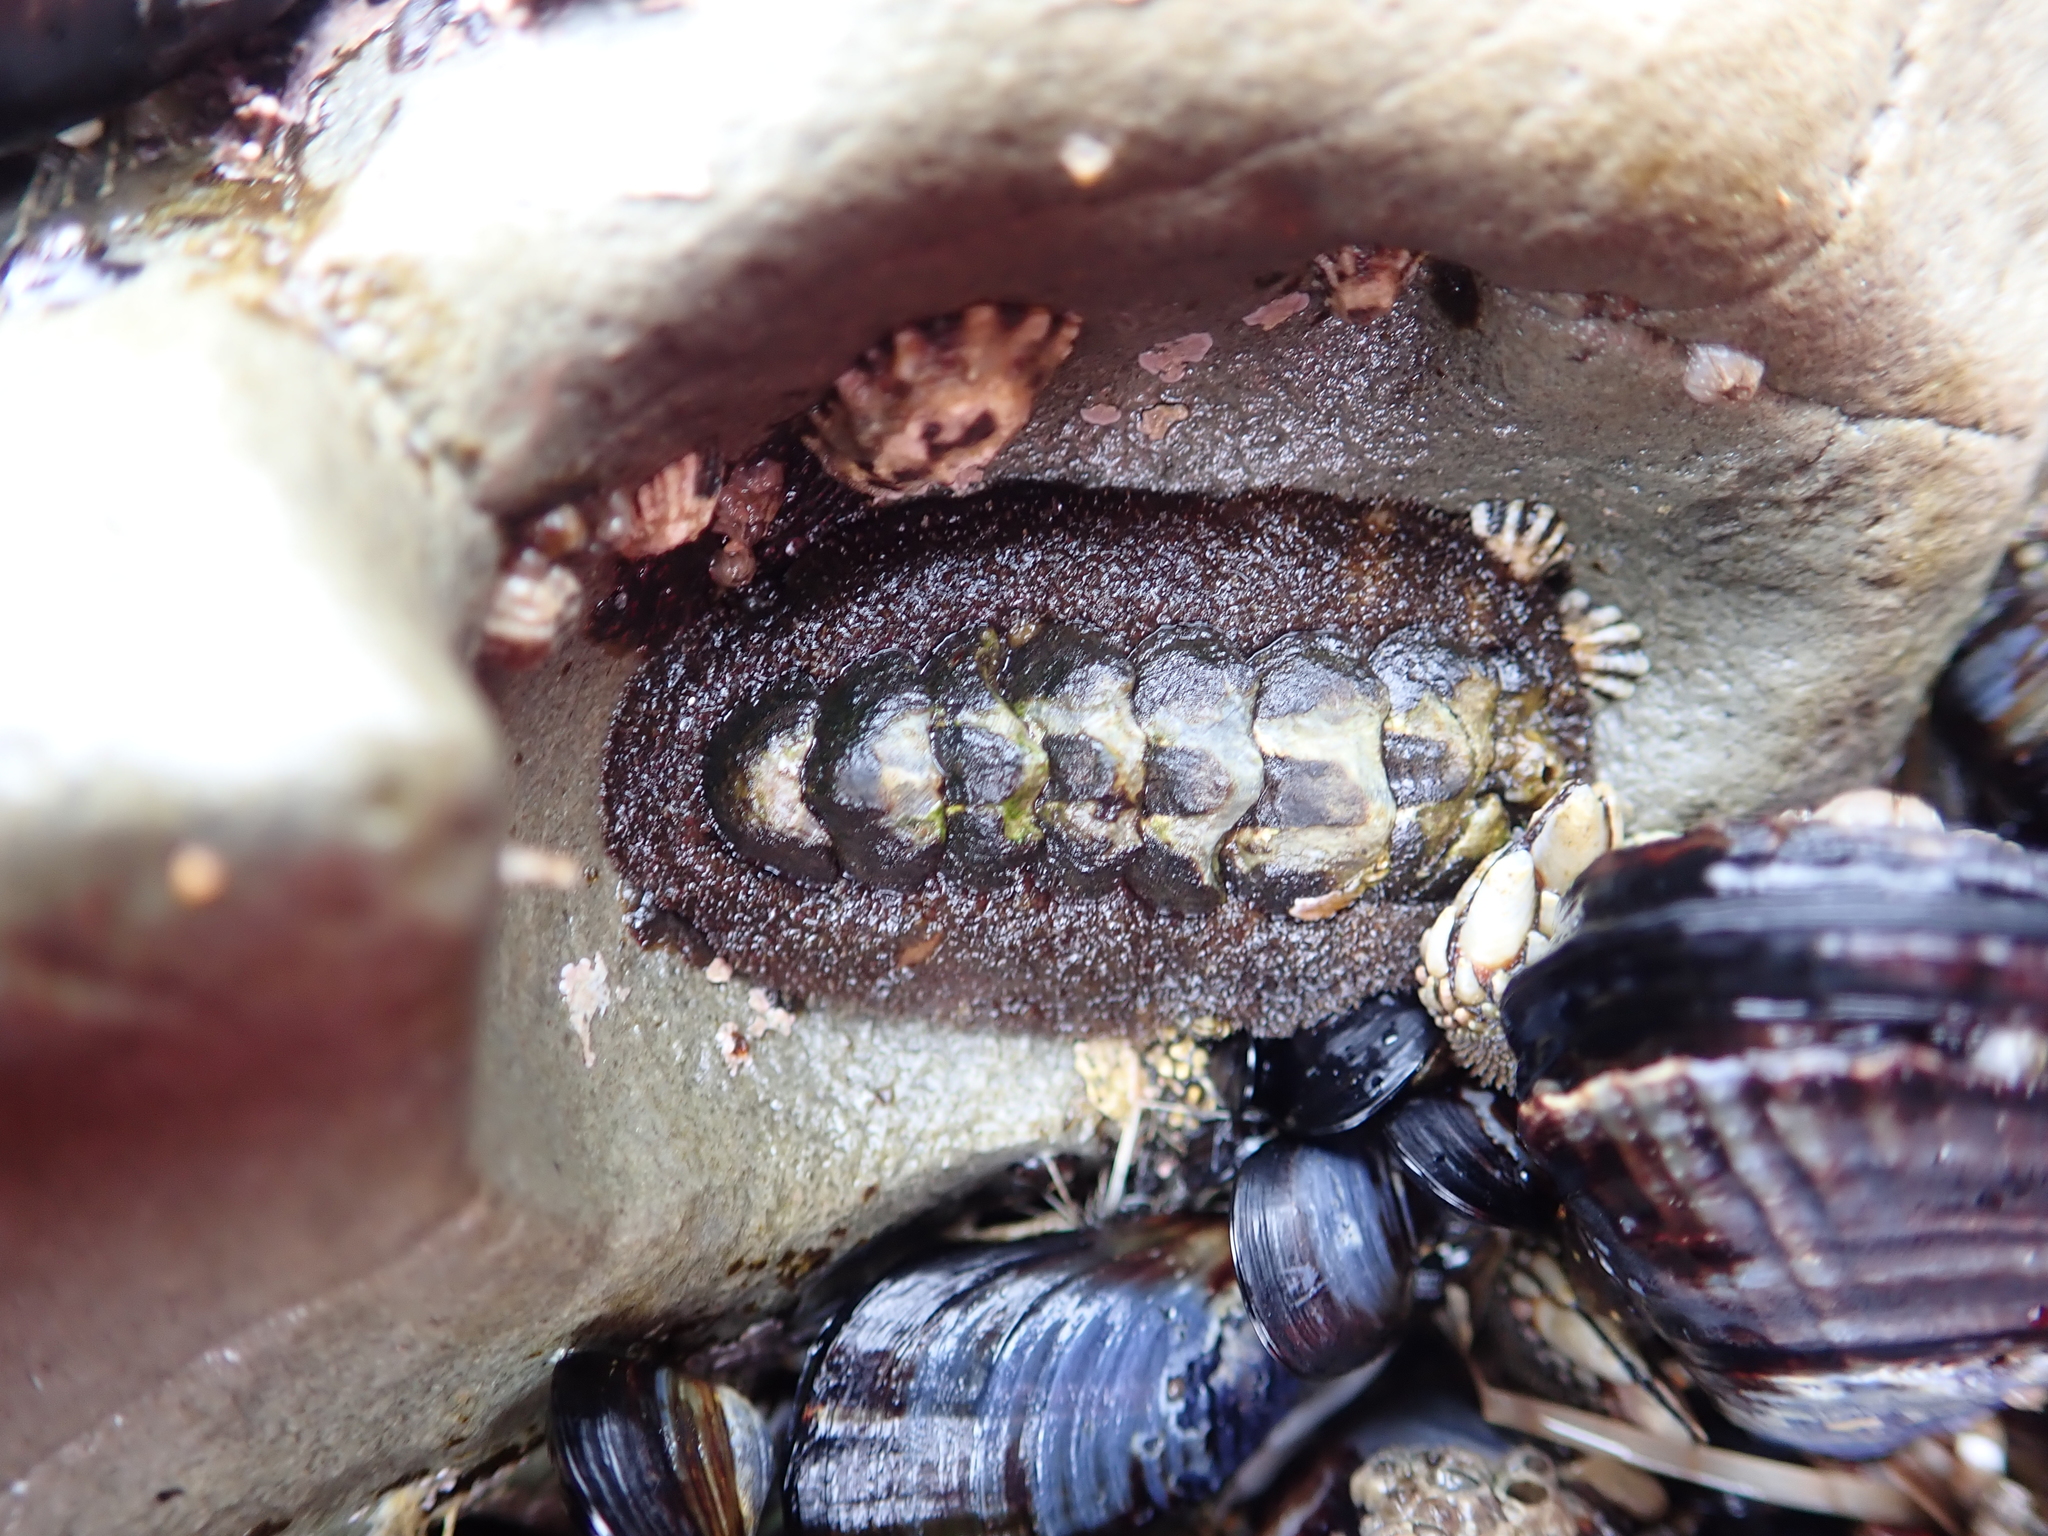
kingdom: Animalia
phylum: Mollusca
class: Polyplacophora
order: Chitonida
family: Tonicellidae
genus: Nuttallina
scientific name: Nuttallina californica
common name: California nuttall chiton
